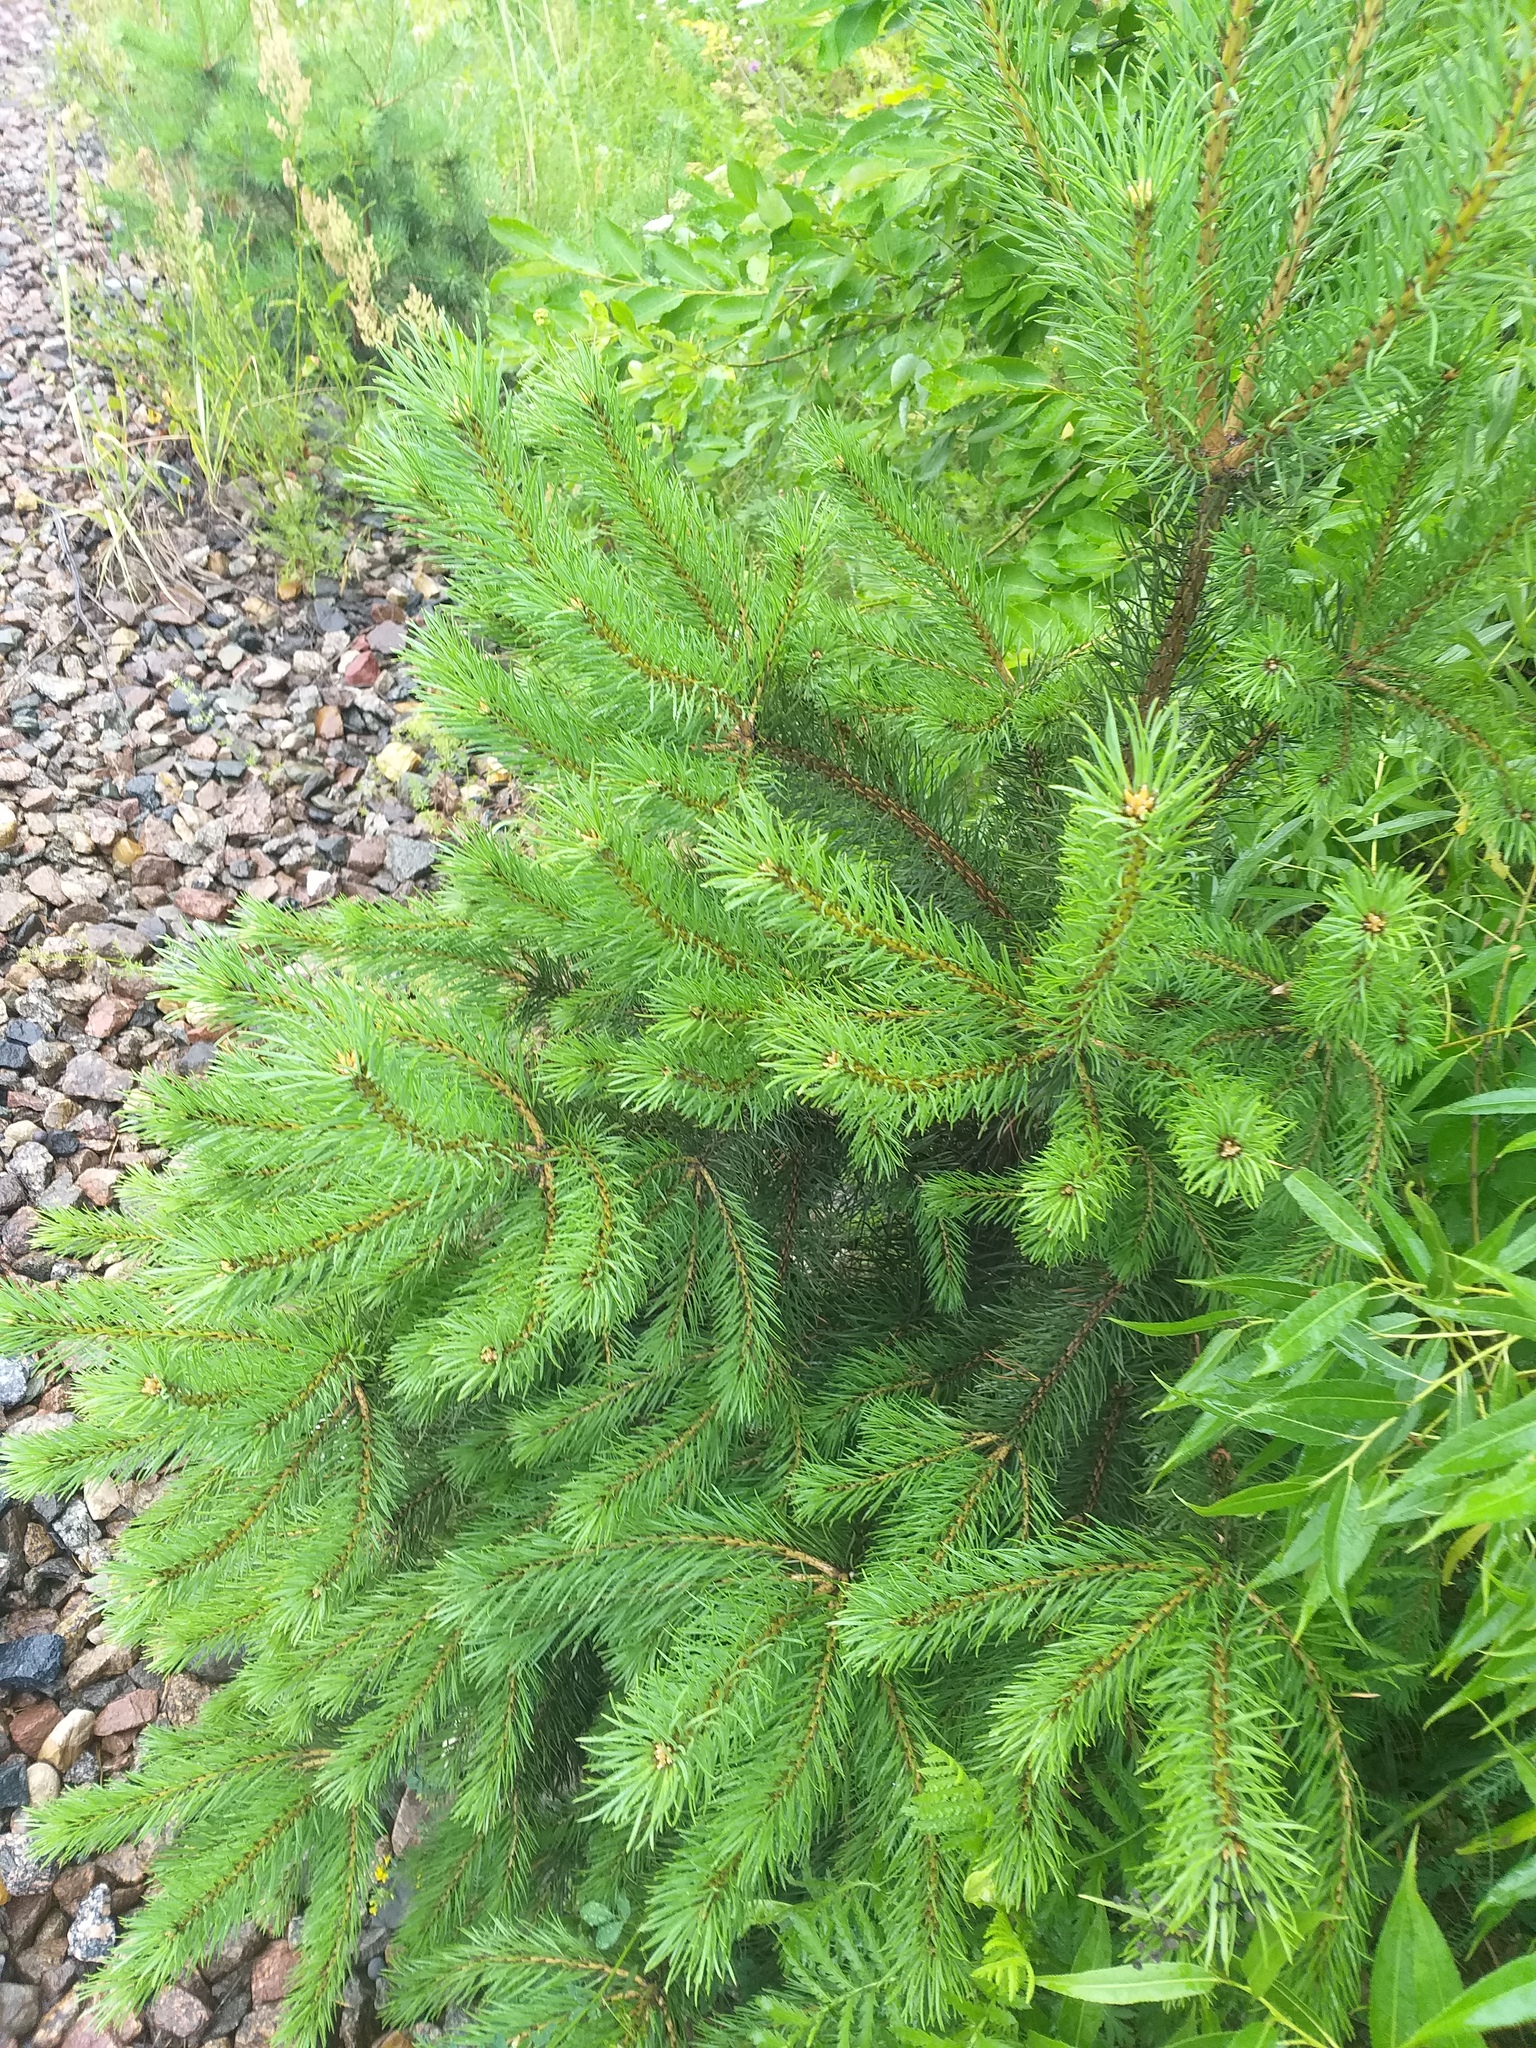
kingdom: Plantae
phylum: Tracheophyta
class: Pinopsida
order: Pinales
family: Pinaceae
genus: Pinus
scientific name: Pinus sylvestris
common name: Scots pine
